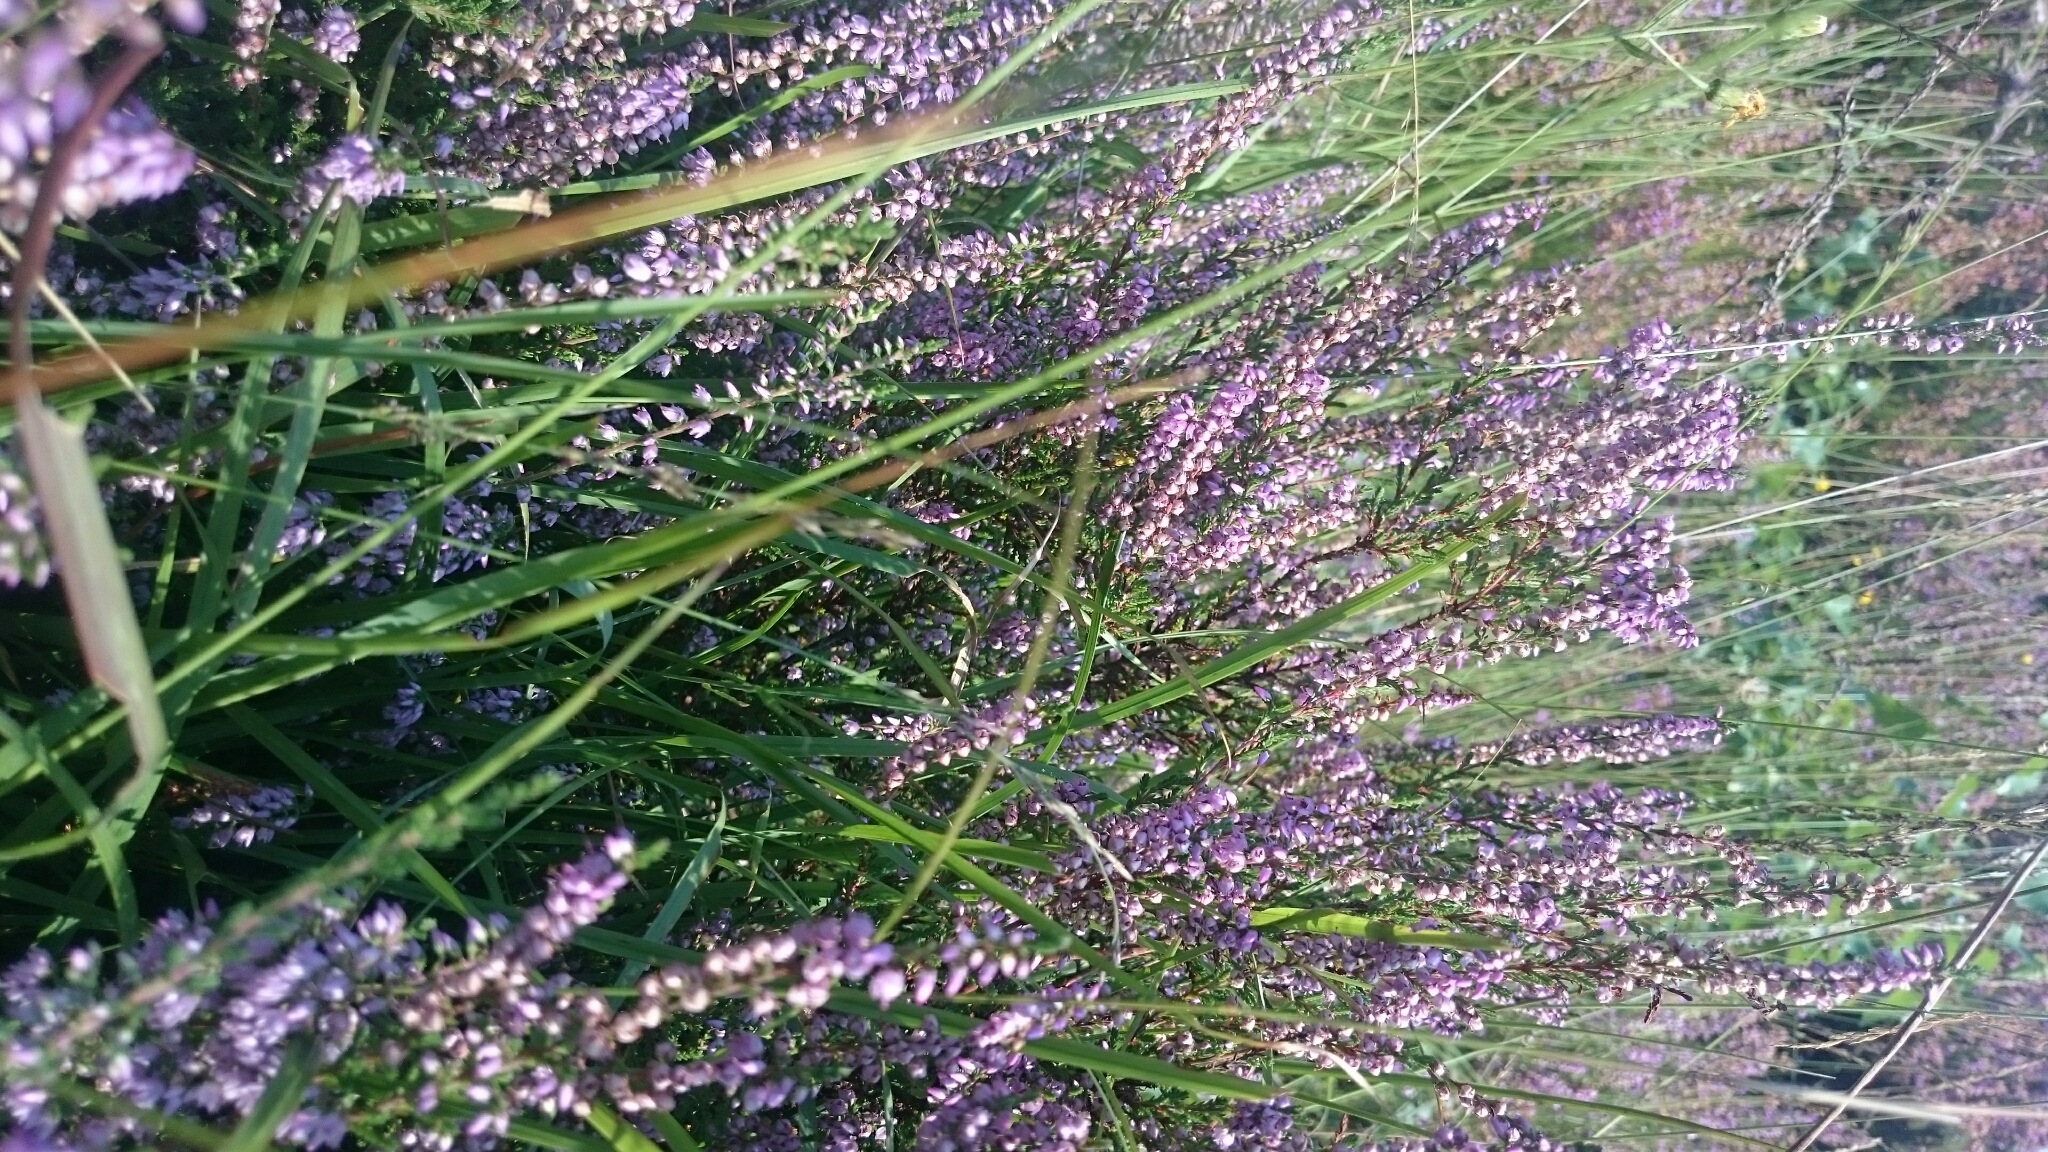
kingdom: Plantae
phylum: Tracheophyta
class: Magnoliopsida
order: Ericales
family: Ericaceae
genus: Calluna
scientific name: Calluna vulgaris
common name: Heather
